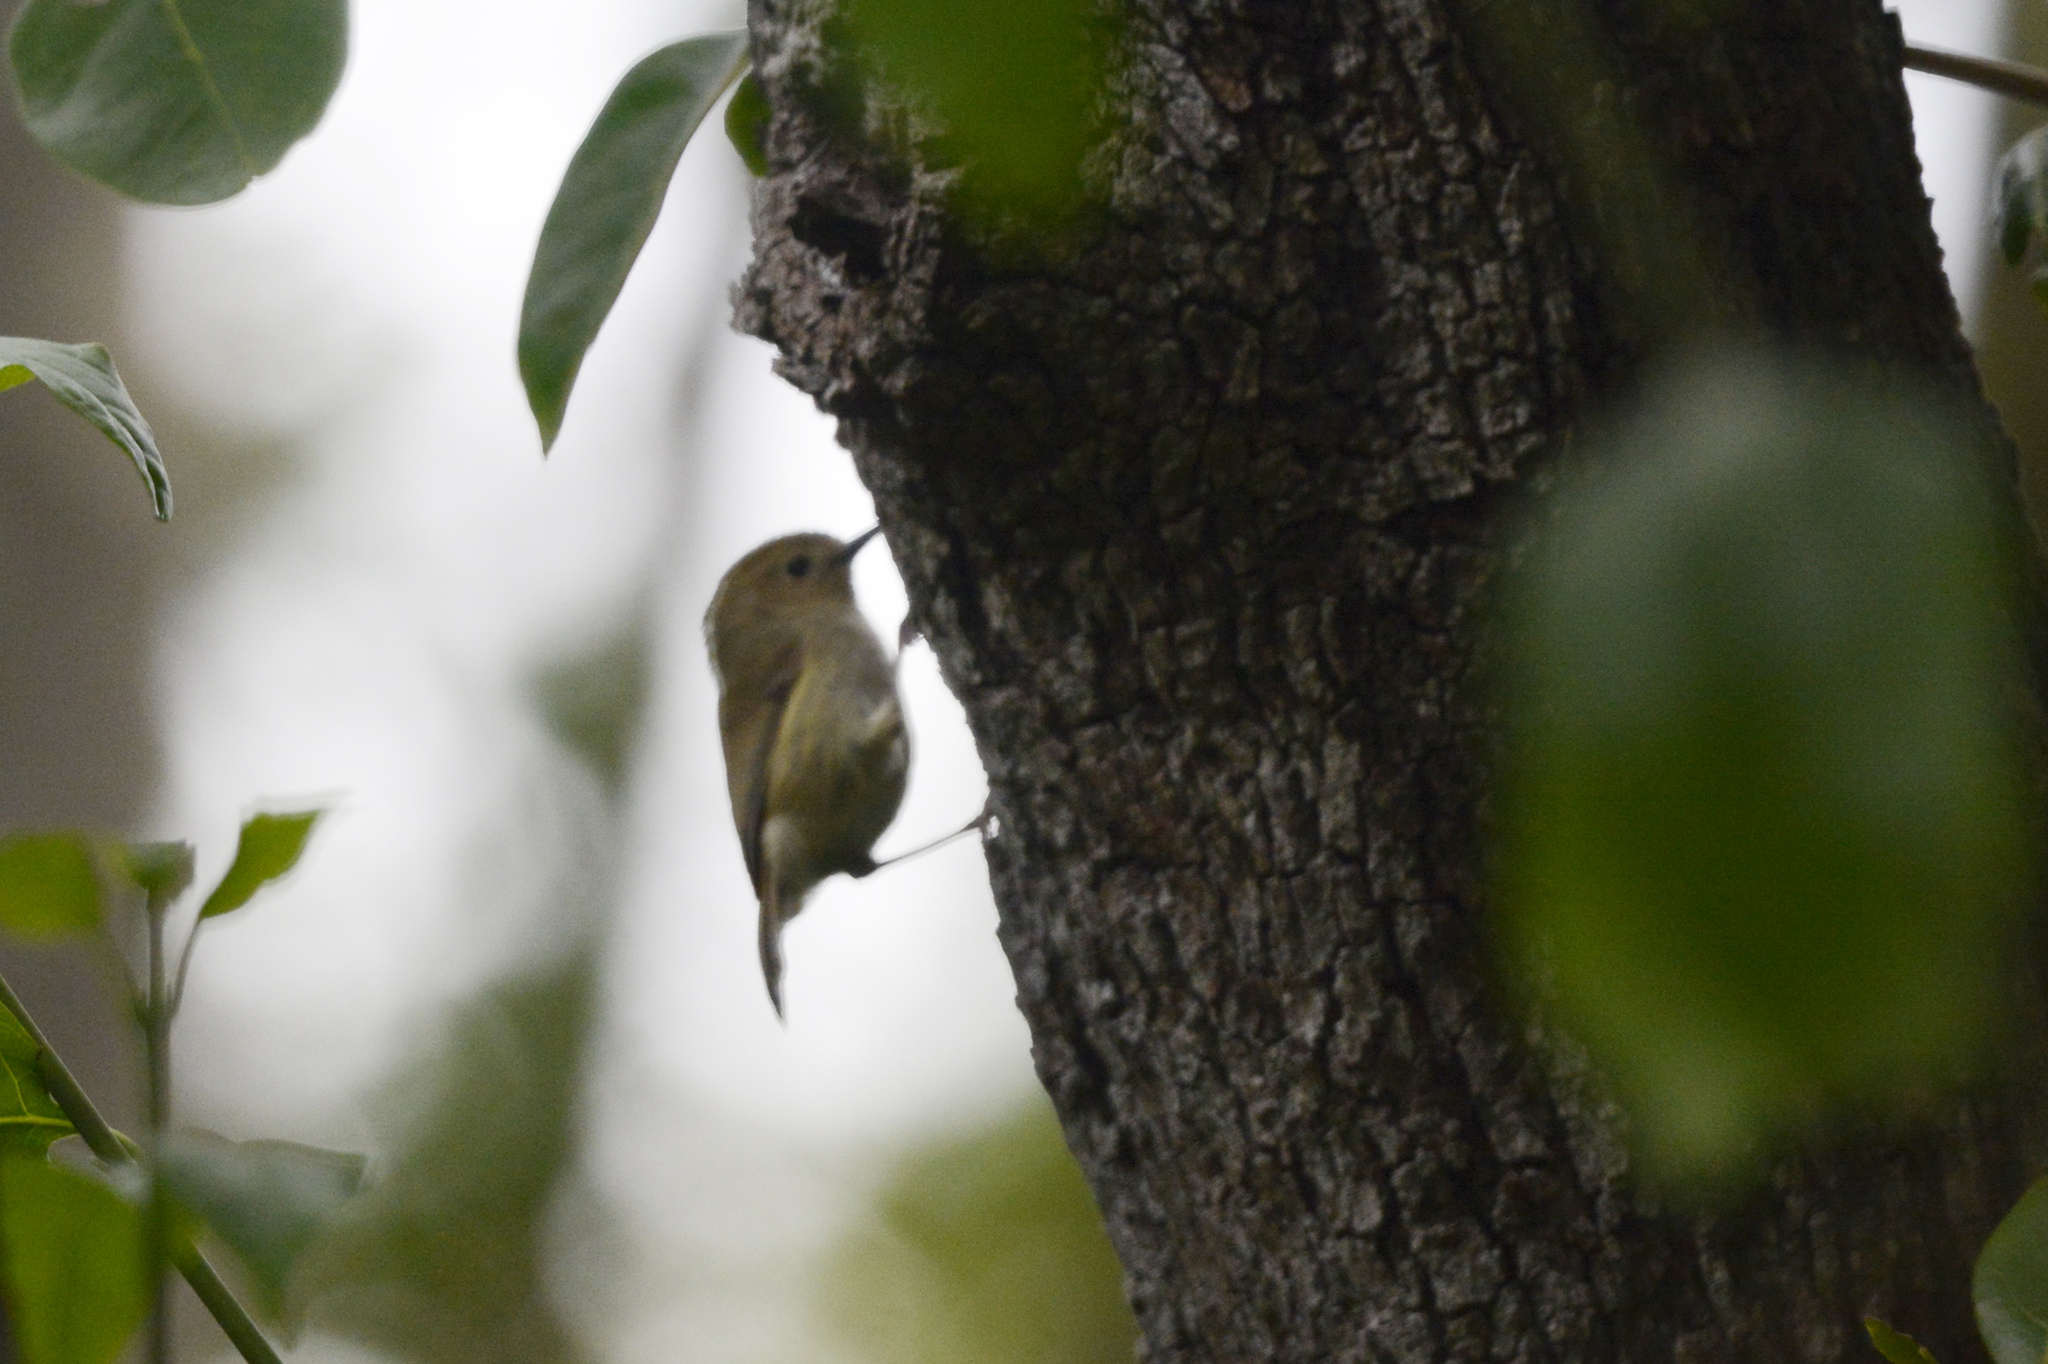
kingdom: Animalia
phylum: Chordata
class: Aves
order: Passeriformes
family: Acanthizidae
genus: Sericornis
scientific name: Sericornis magnirostra
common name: Large-billed scrubwren
